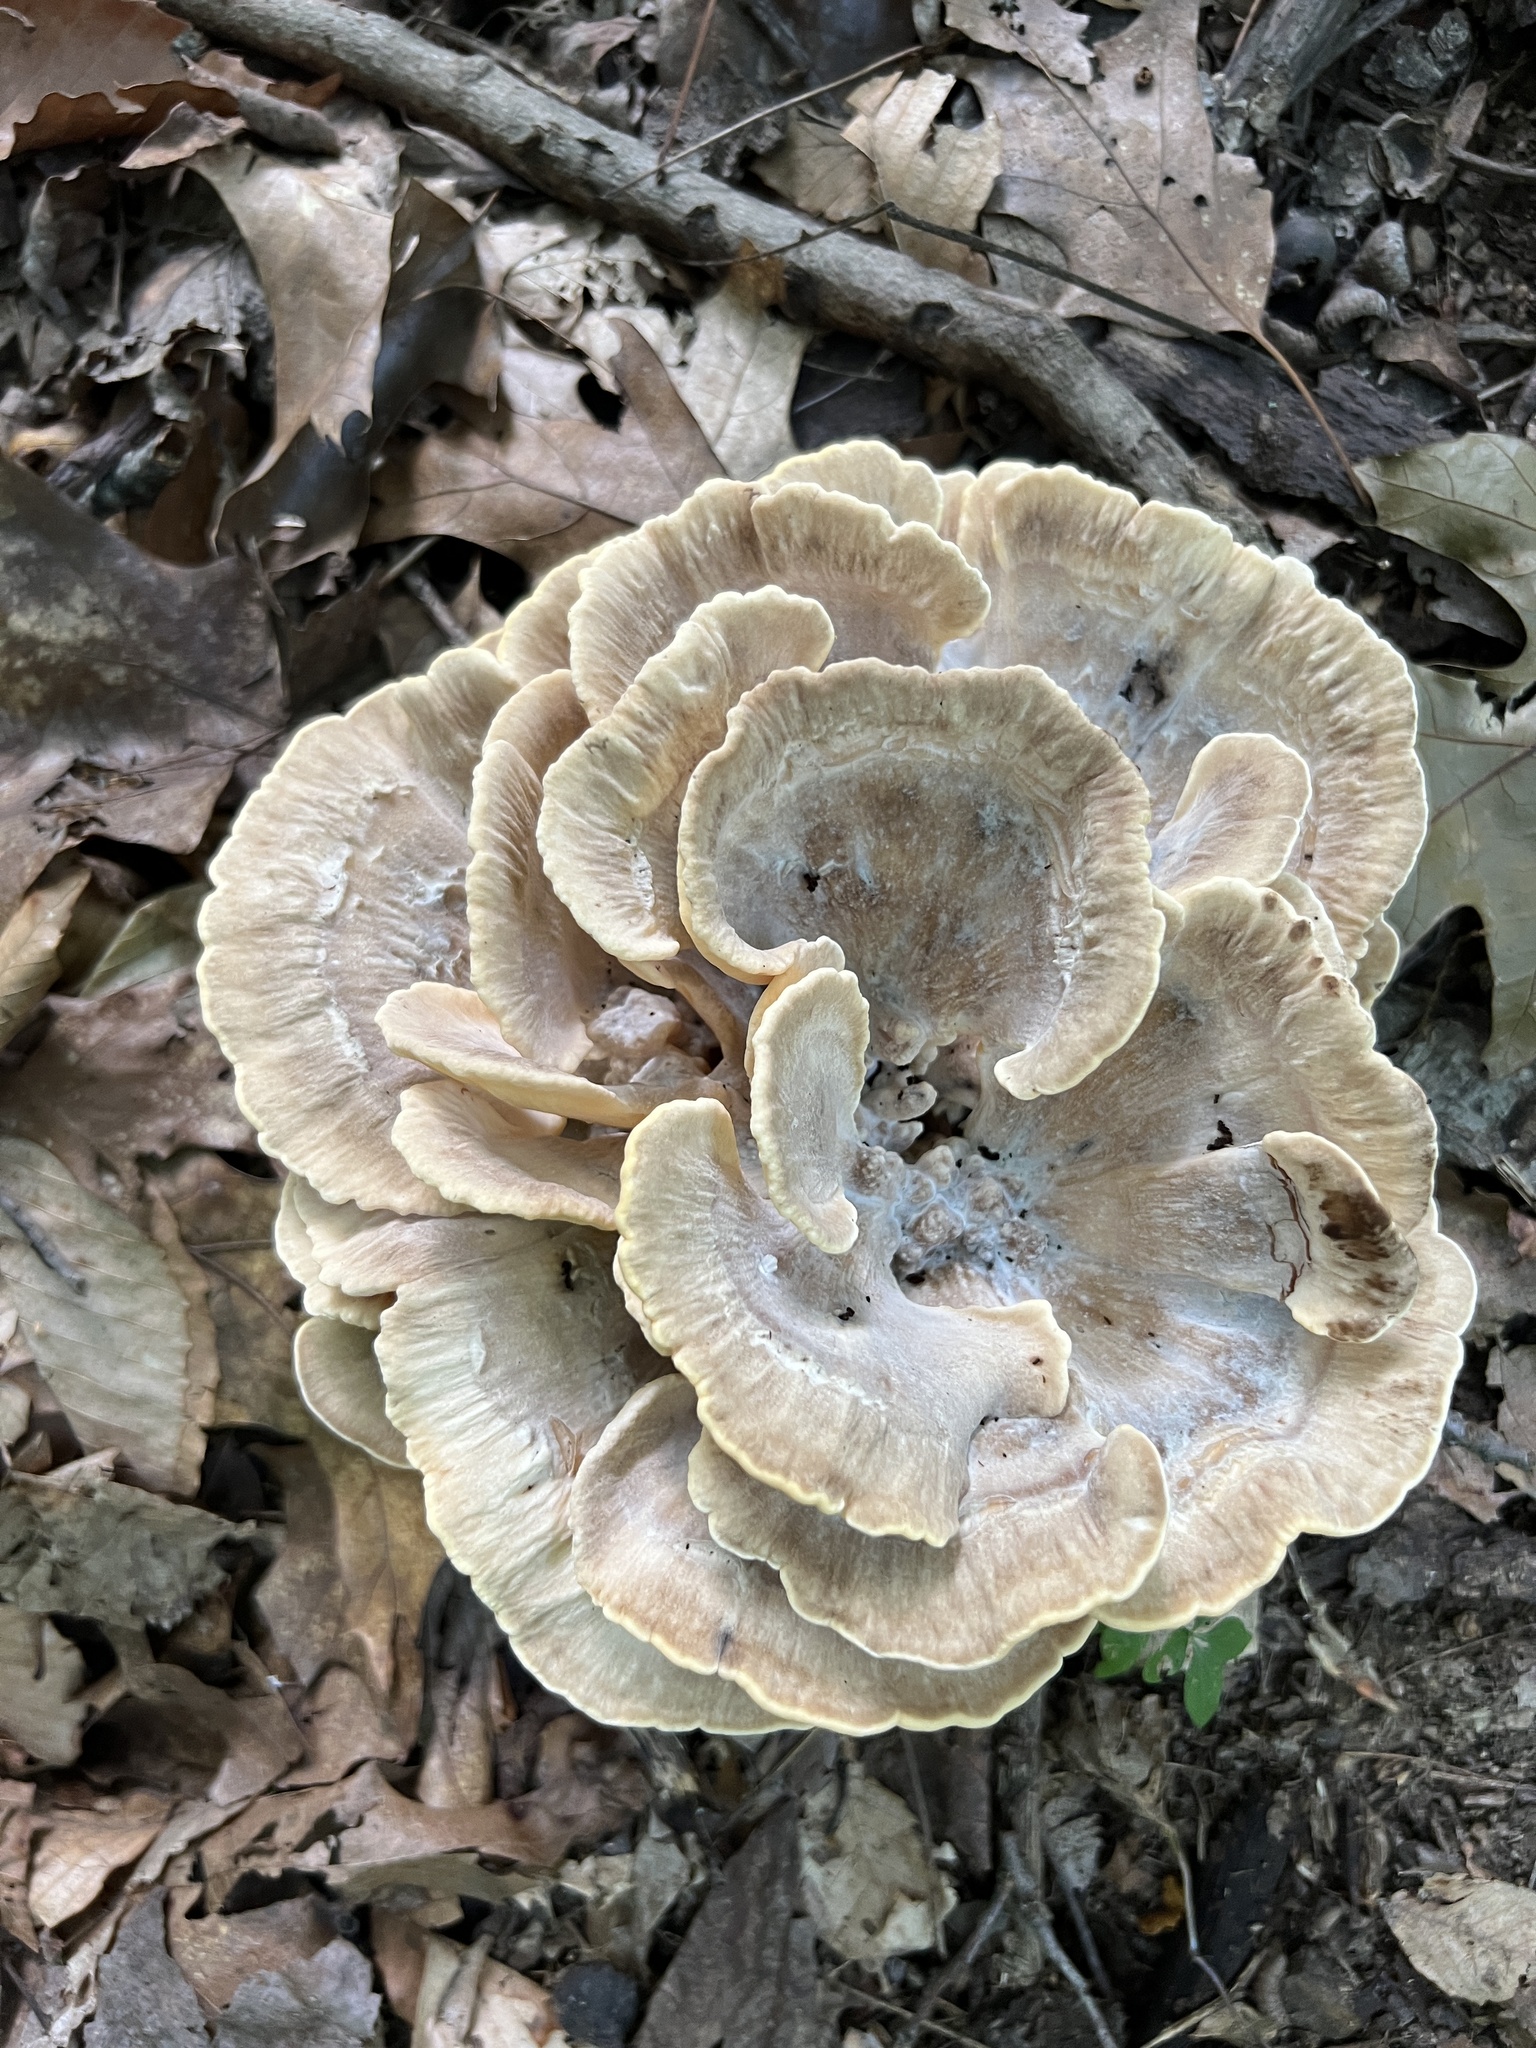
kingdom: Fungi
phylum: Basidiomycota
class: Agaricomycetes
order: Polyporales
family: Meripilaceae
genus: Meripilus
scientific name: Meripilus sumstinei
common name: Black-staining polypore
